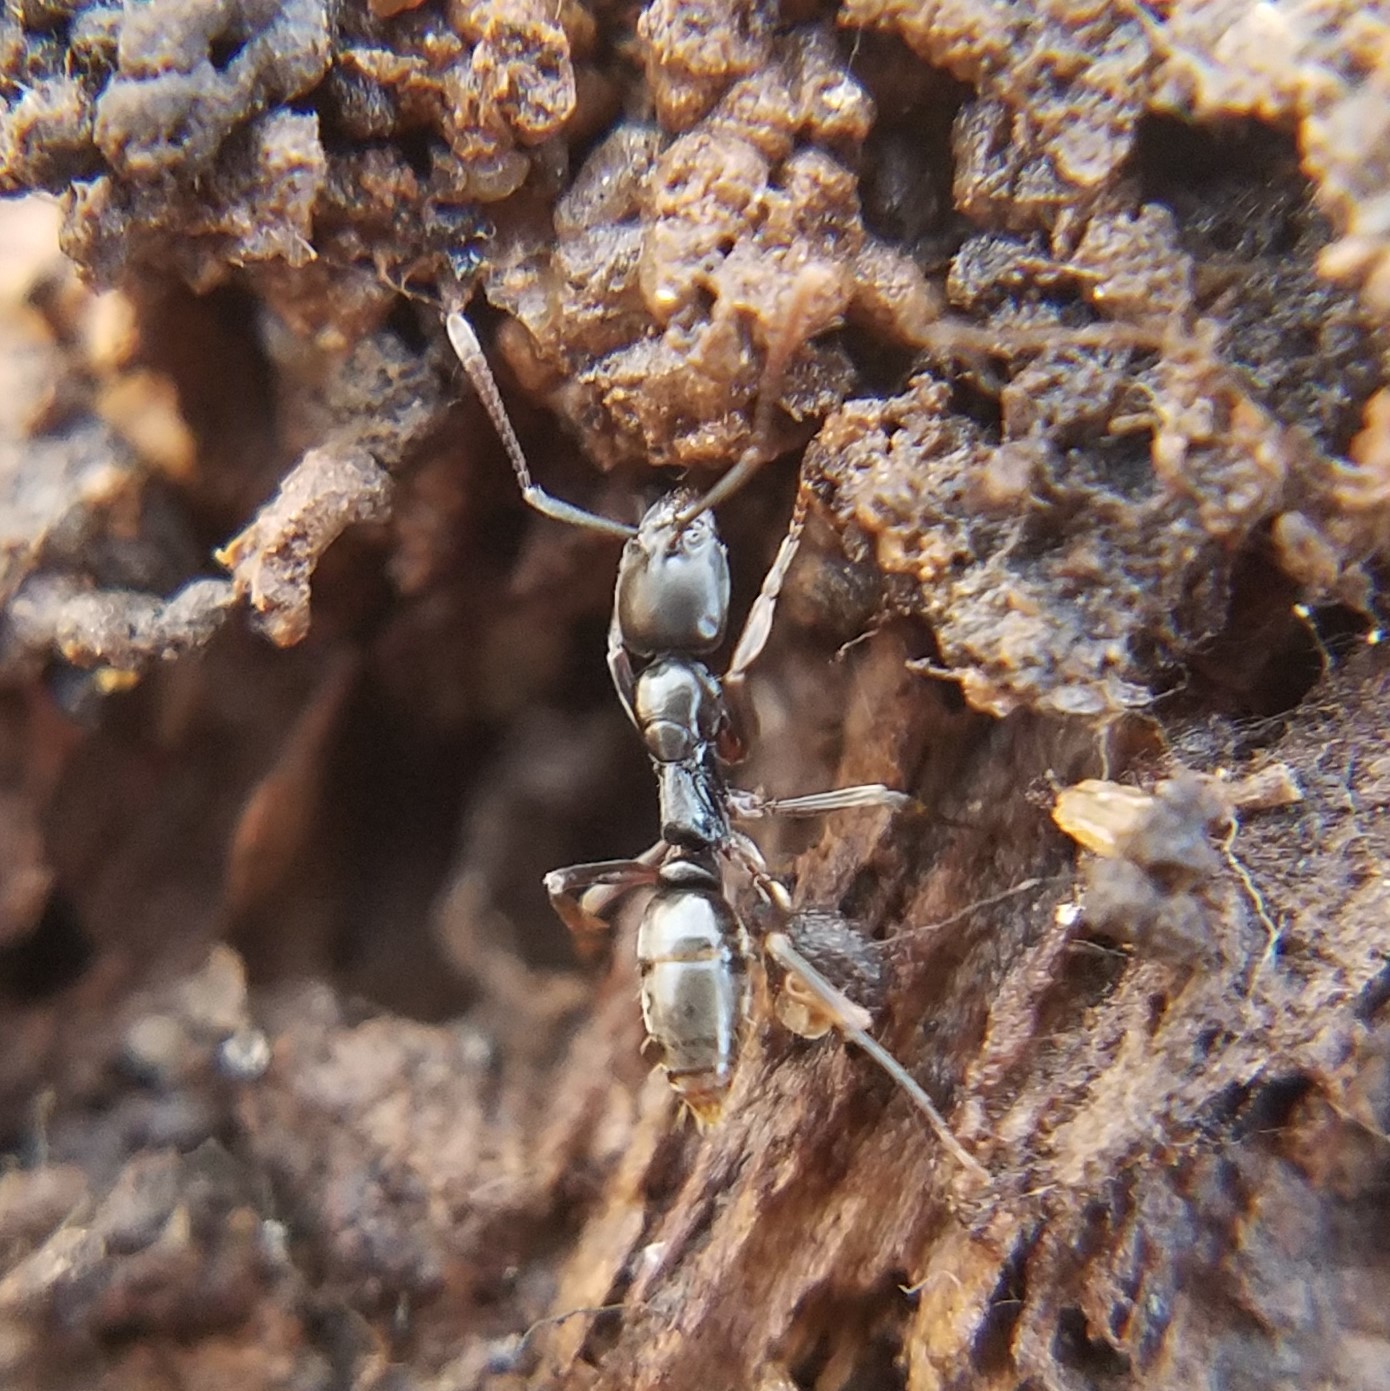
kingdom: Animalia
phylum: Arthropoda
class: Insecta
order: Hymenoptera
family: Formicidae
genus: Pachycondyla
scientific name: Pachycondyla chinensis
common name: Asian needle ant
